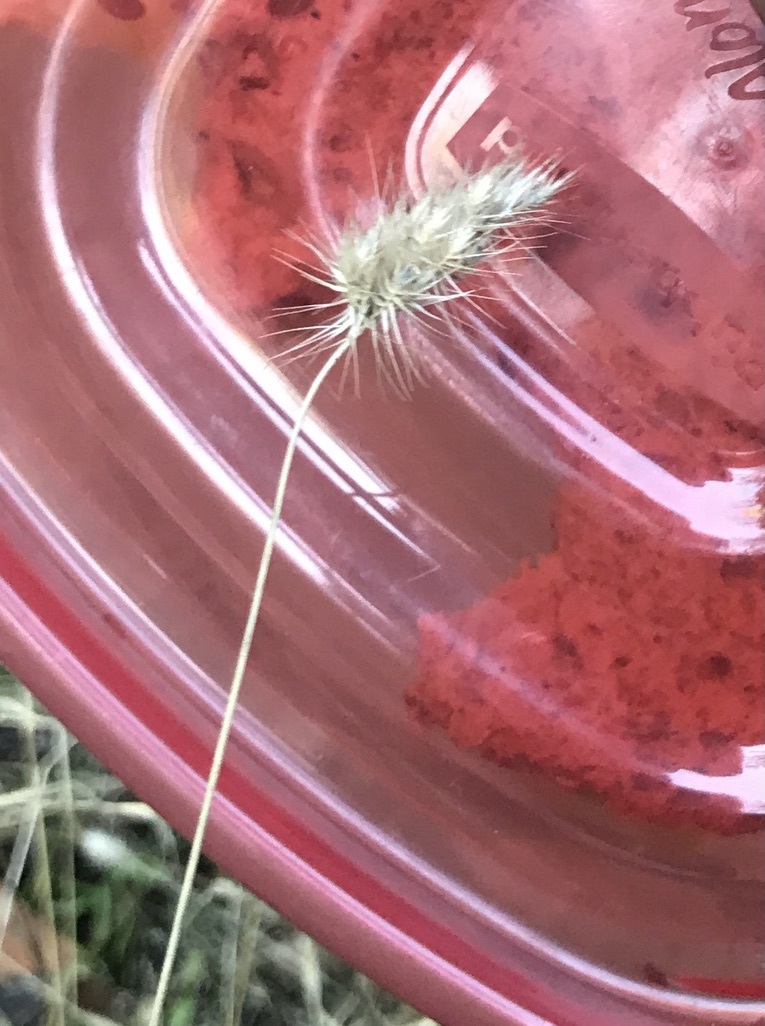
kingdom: Plantae
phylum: Tracheophyta
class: Liliopsida
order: Poales
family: Poaceae
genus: Cynosurus
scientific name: Cynosurus echinatus
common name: Rough dog's-tail
